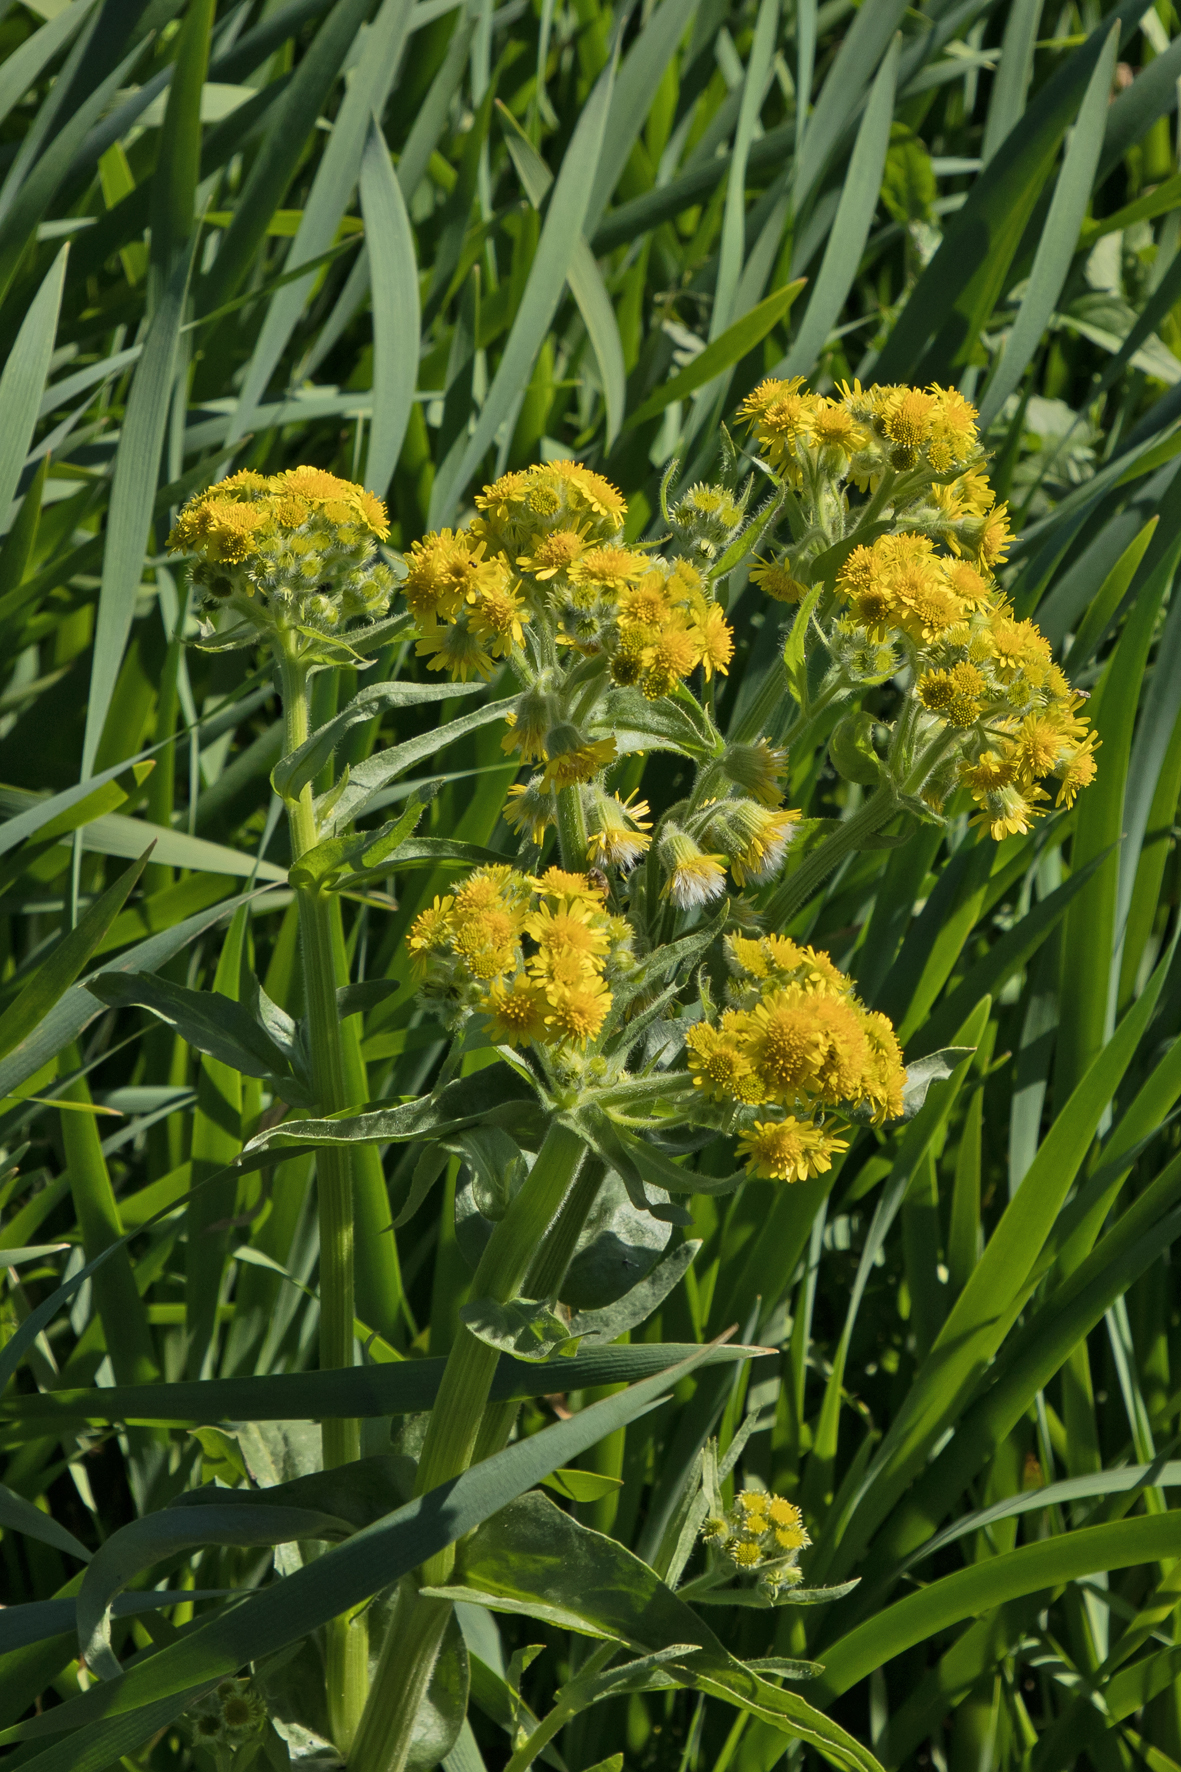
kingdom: Plantae
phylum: Tracheophyta
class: Magnoliopsida
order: Asterales
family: Asteraceae
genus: Tephroseris
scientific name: Tephroseris palustris
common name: Marsh fleawort
